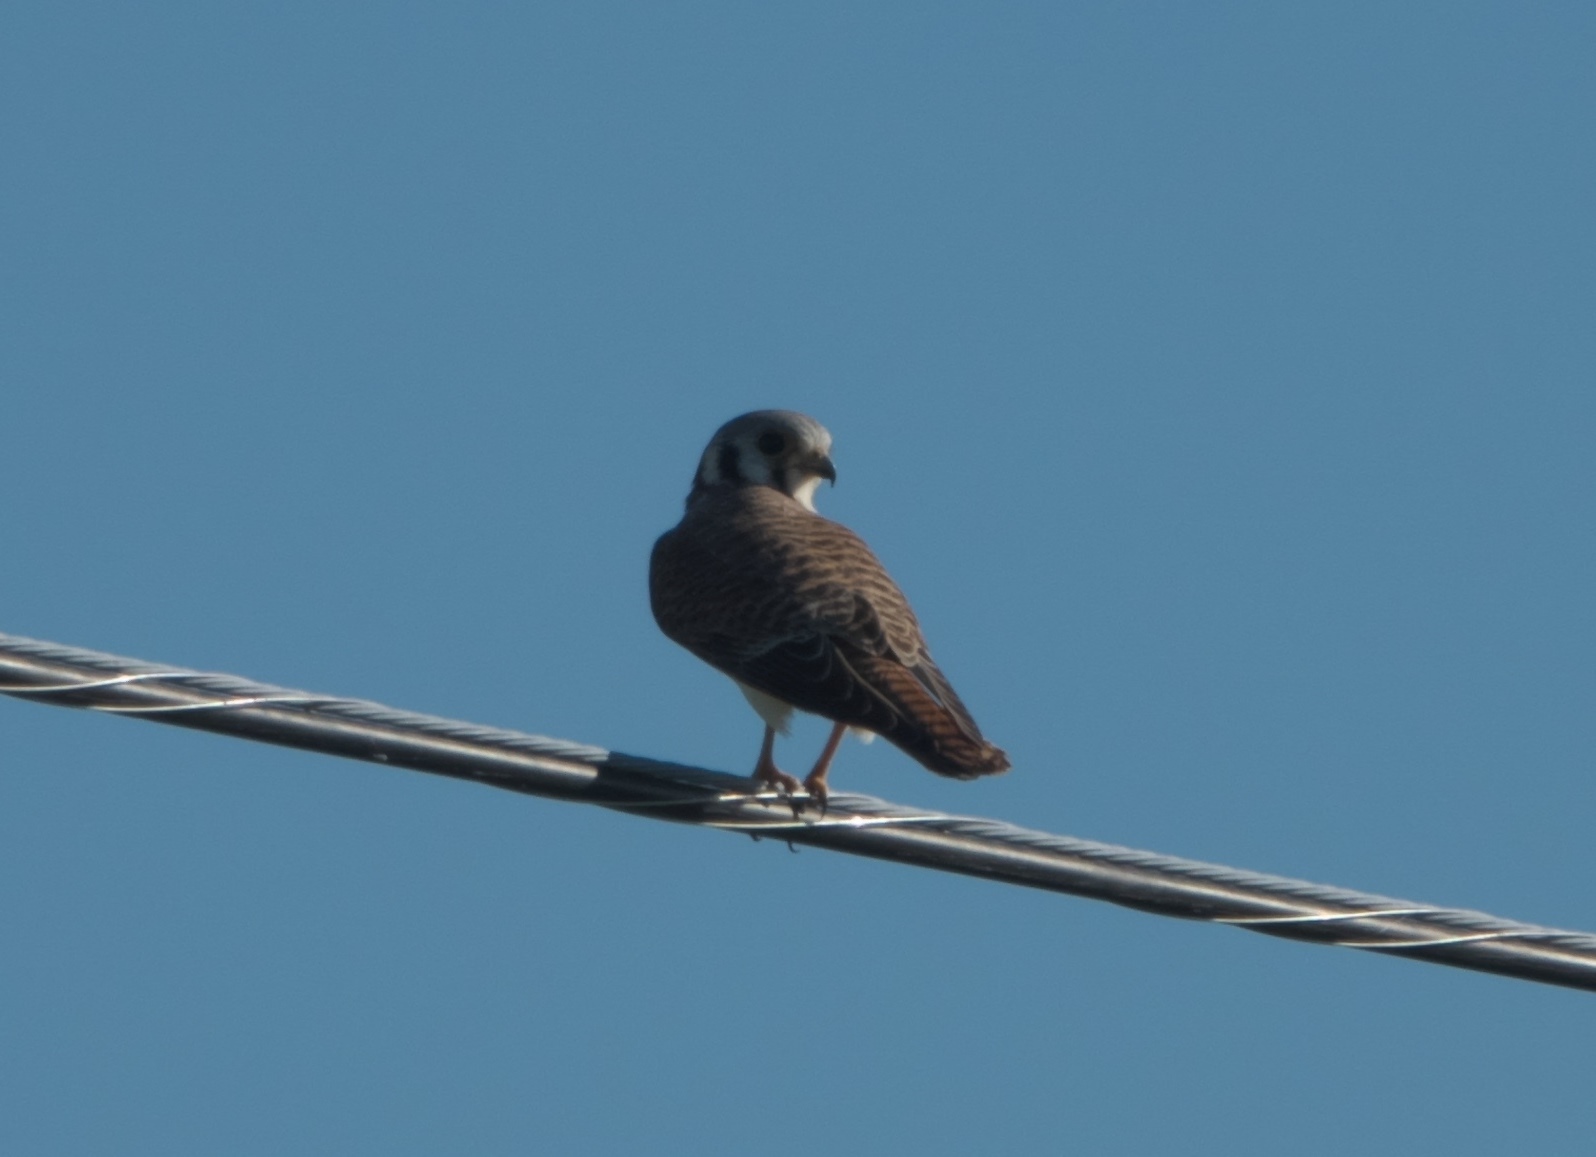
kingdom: Animalia
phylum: Chordata
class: Aves
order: Falconiformes
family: Falconidae
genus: Falco
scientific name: Falco sparverius
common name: American kestrel
